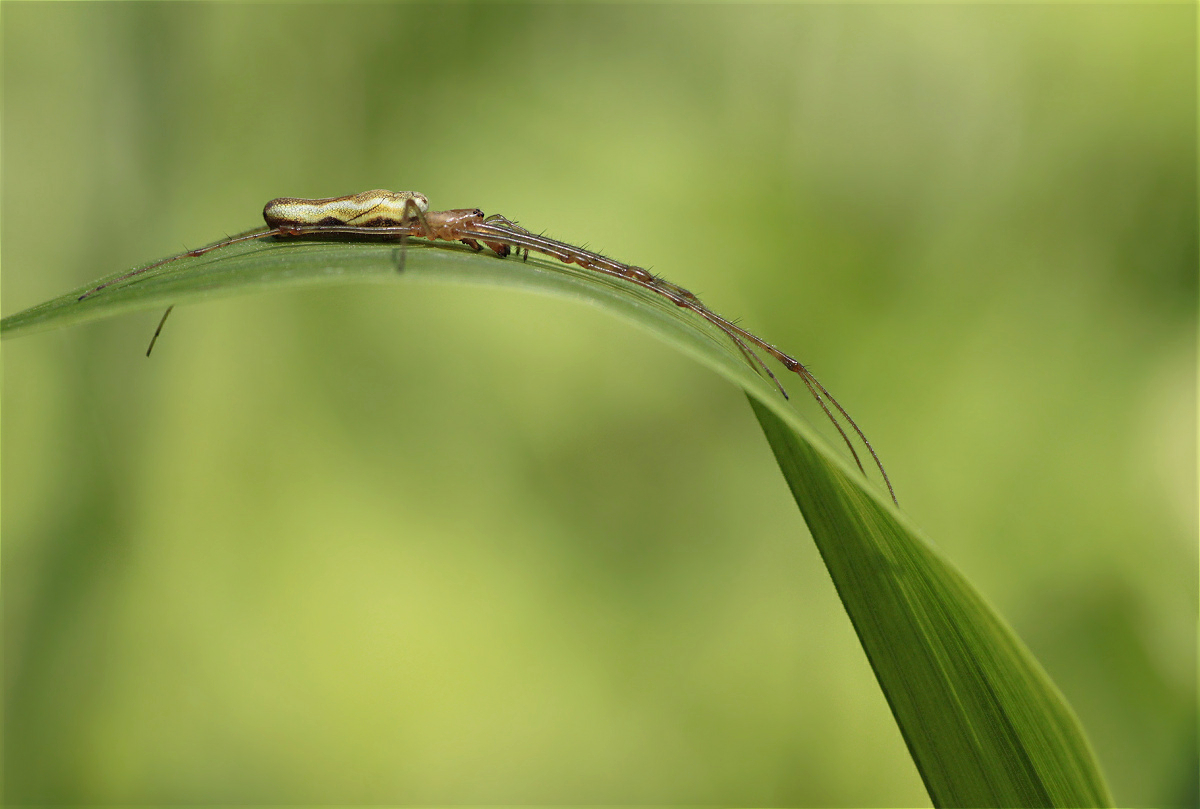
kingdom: Animalia
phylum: Arthropoda
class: Arachnida
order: Araneae
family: Tetragnathidae
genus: Tetragnatha
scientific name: Tetragnatha
